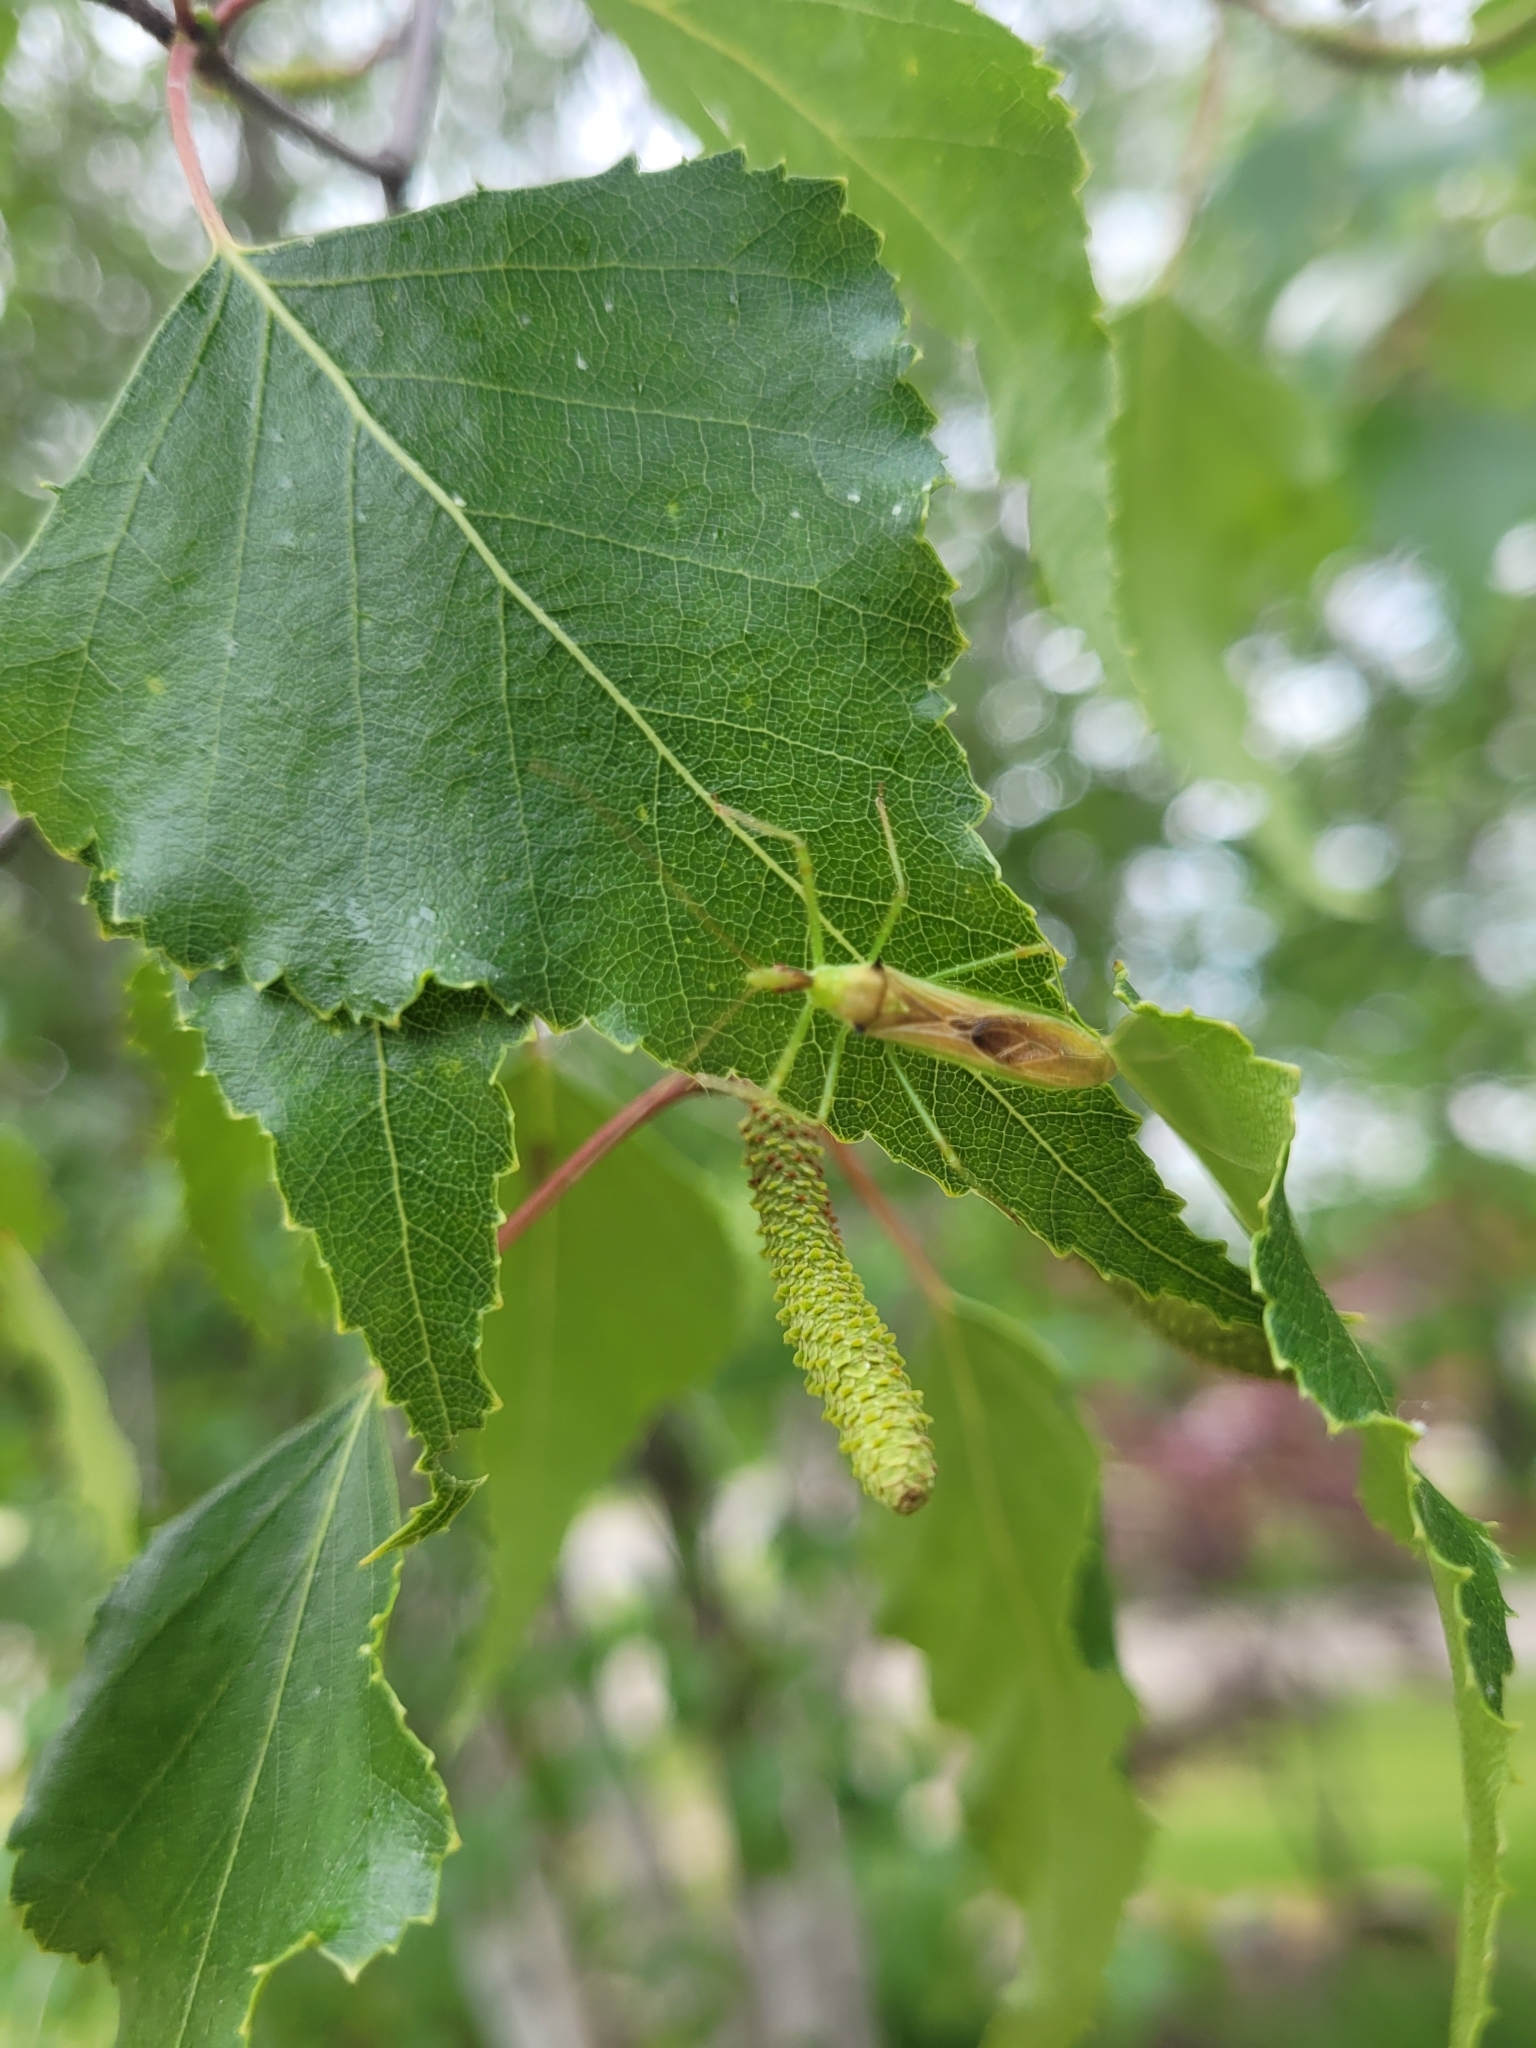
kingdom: Animalia
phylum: Arthropoda
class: Insecta
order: Hemiptera
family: Reduviidae
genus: Zelus
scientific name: Zelus luridus
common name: Pale green assassin bug
